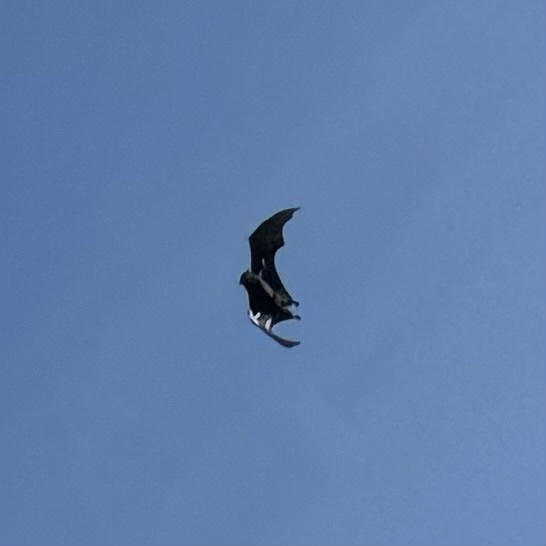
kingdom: Animalia
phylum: Chordata
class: Mammalia
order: Chiroptera
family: Pteropodidae
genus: Pteropus
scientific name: Pteropus alecto
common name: Black flying fox
